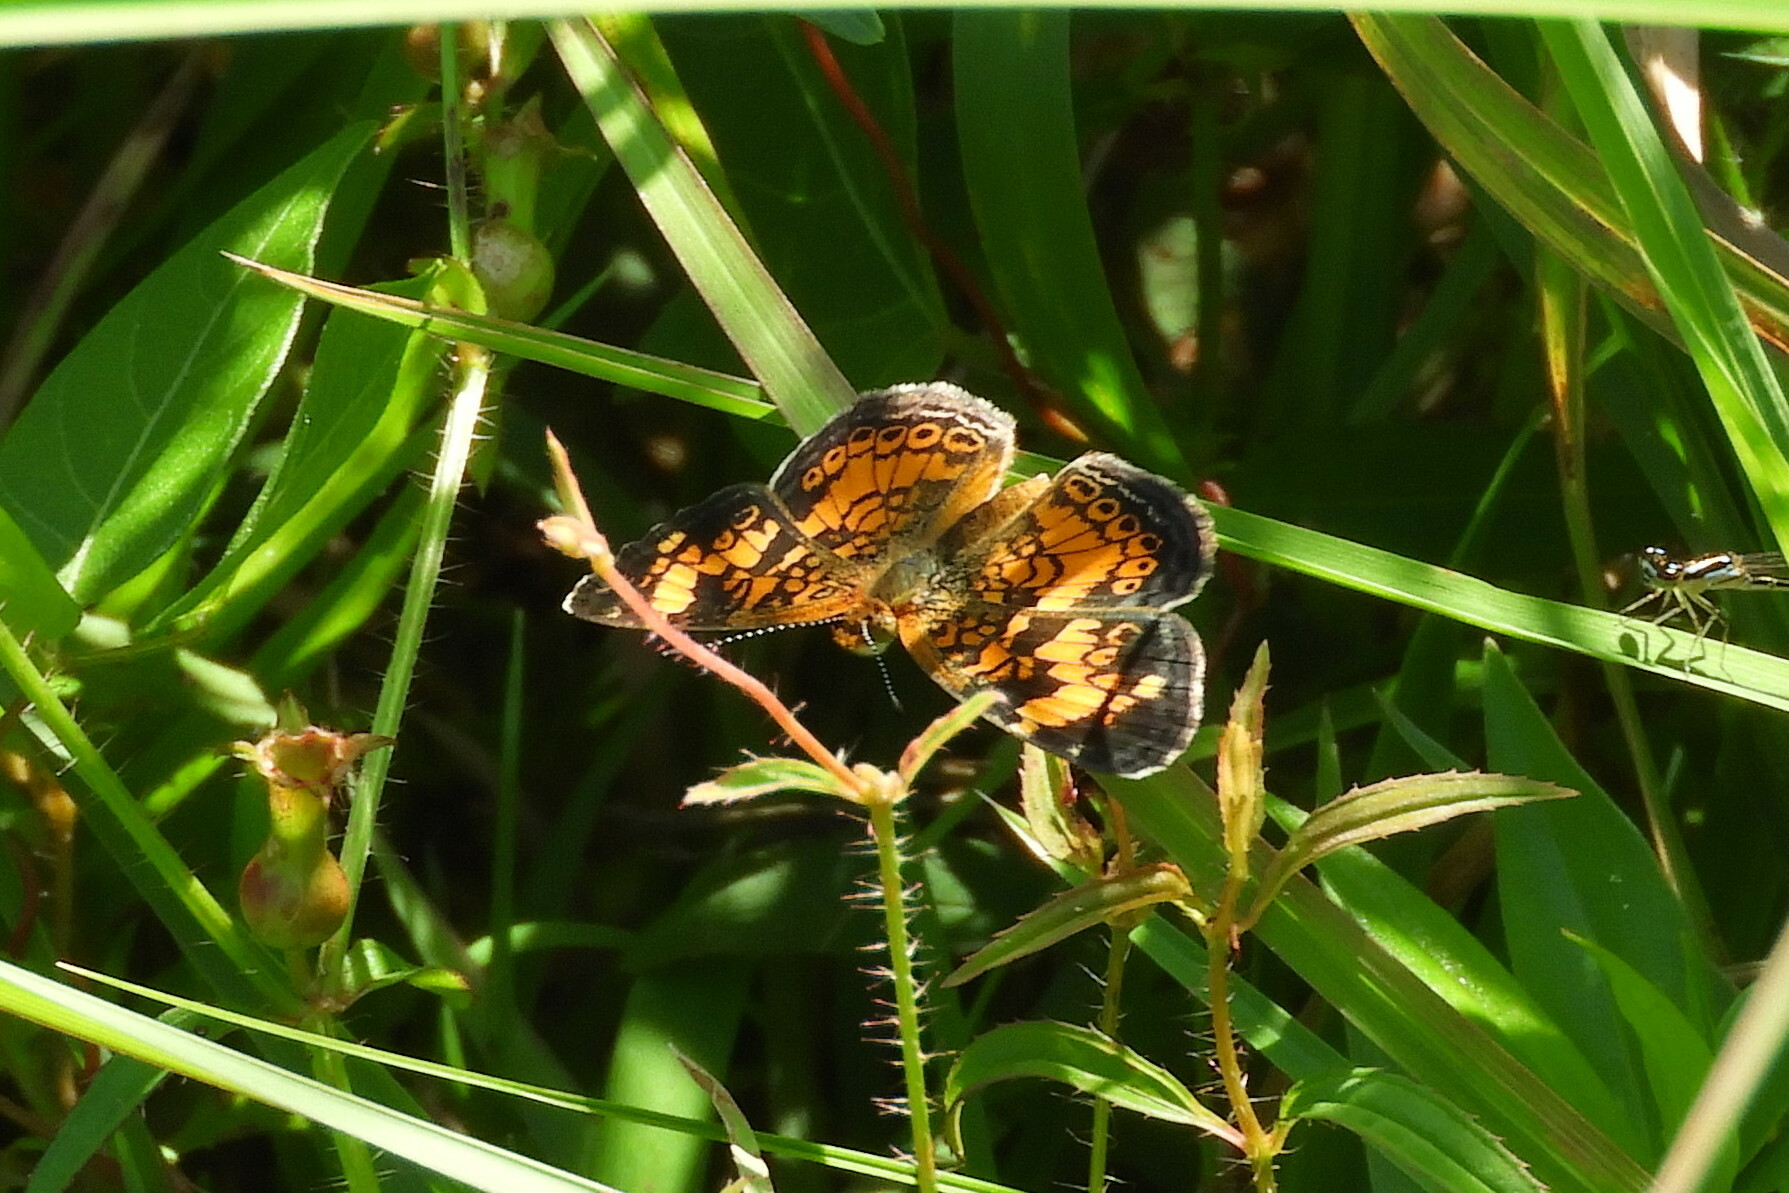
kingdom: Animalia
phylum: Arthropoda
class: Insecta
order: Lepidoptera
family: Nymphalidae
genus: Phyciodes
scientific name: Phyciodes tharos
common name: Pearl crescent
